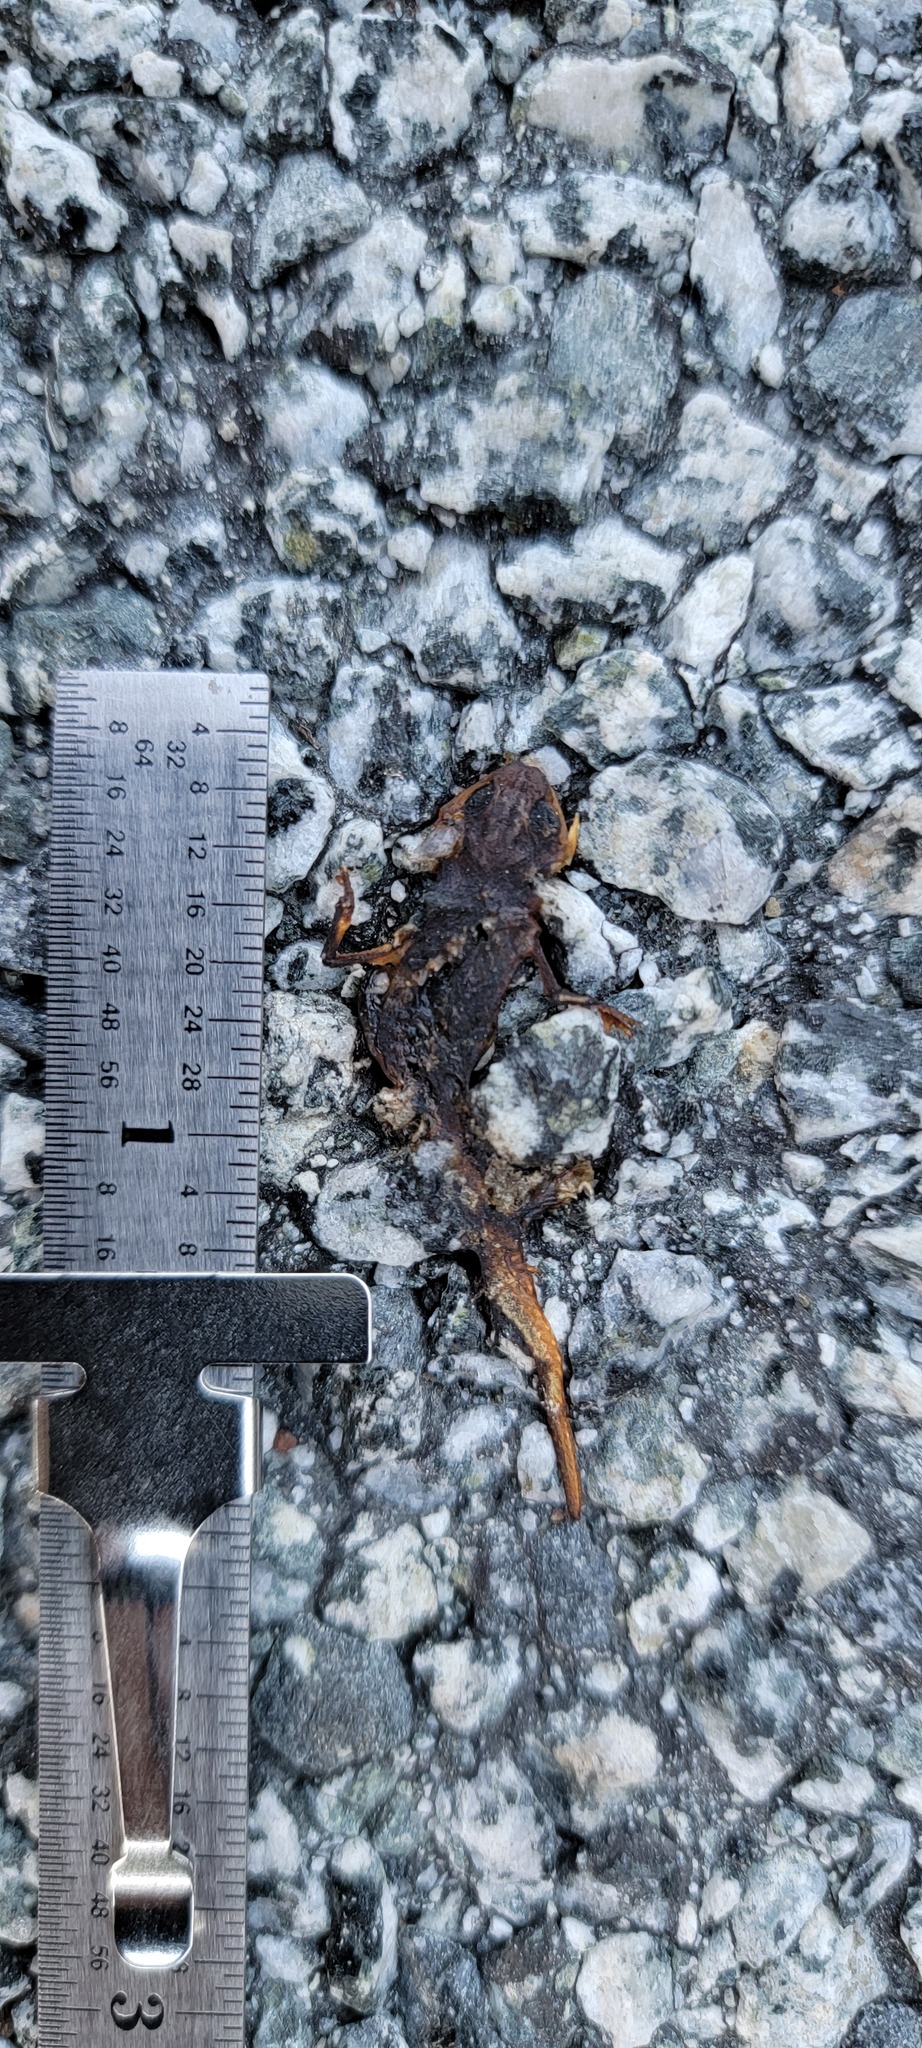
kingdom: Animalia
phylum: Chordata
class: Amphibia
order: Caudata
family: Salamandridae
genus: Taricha
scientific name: Taricha
